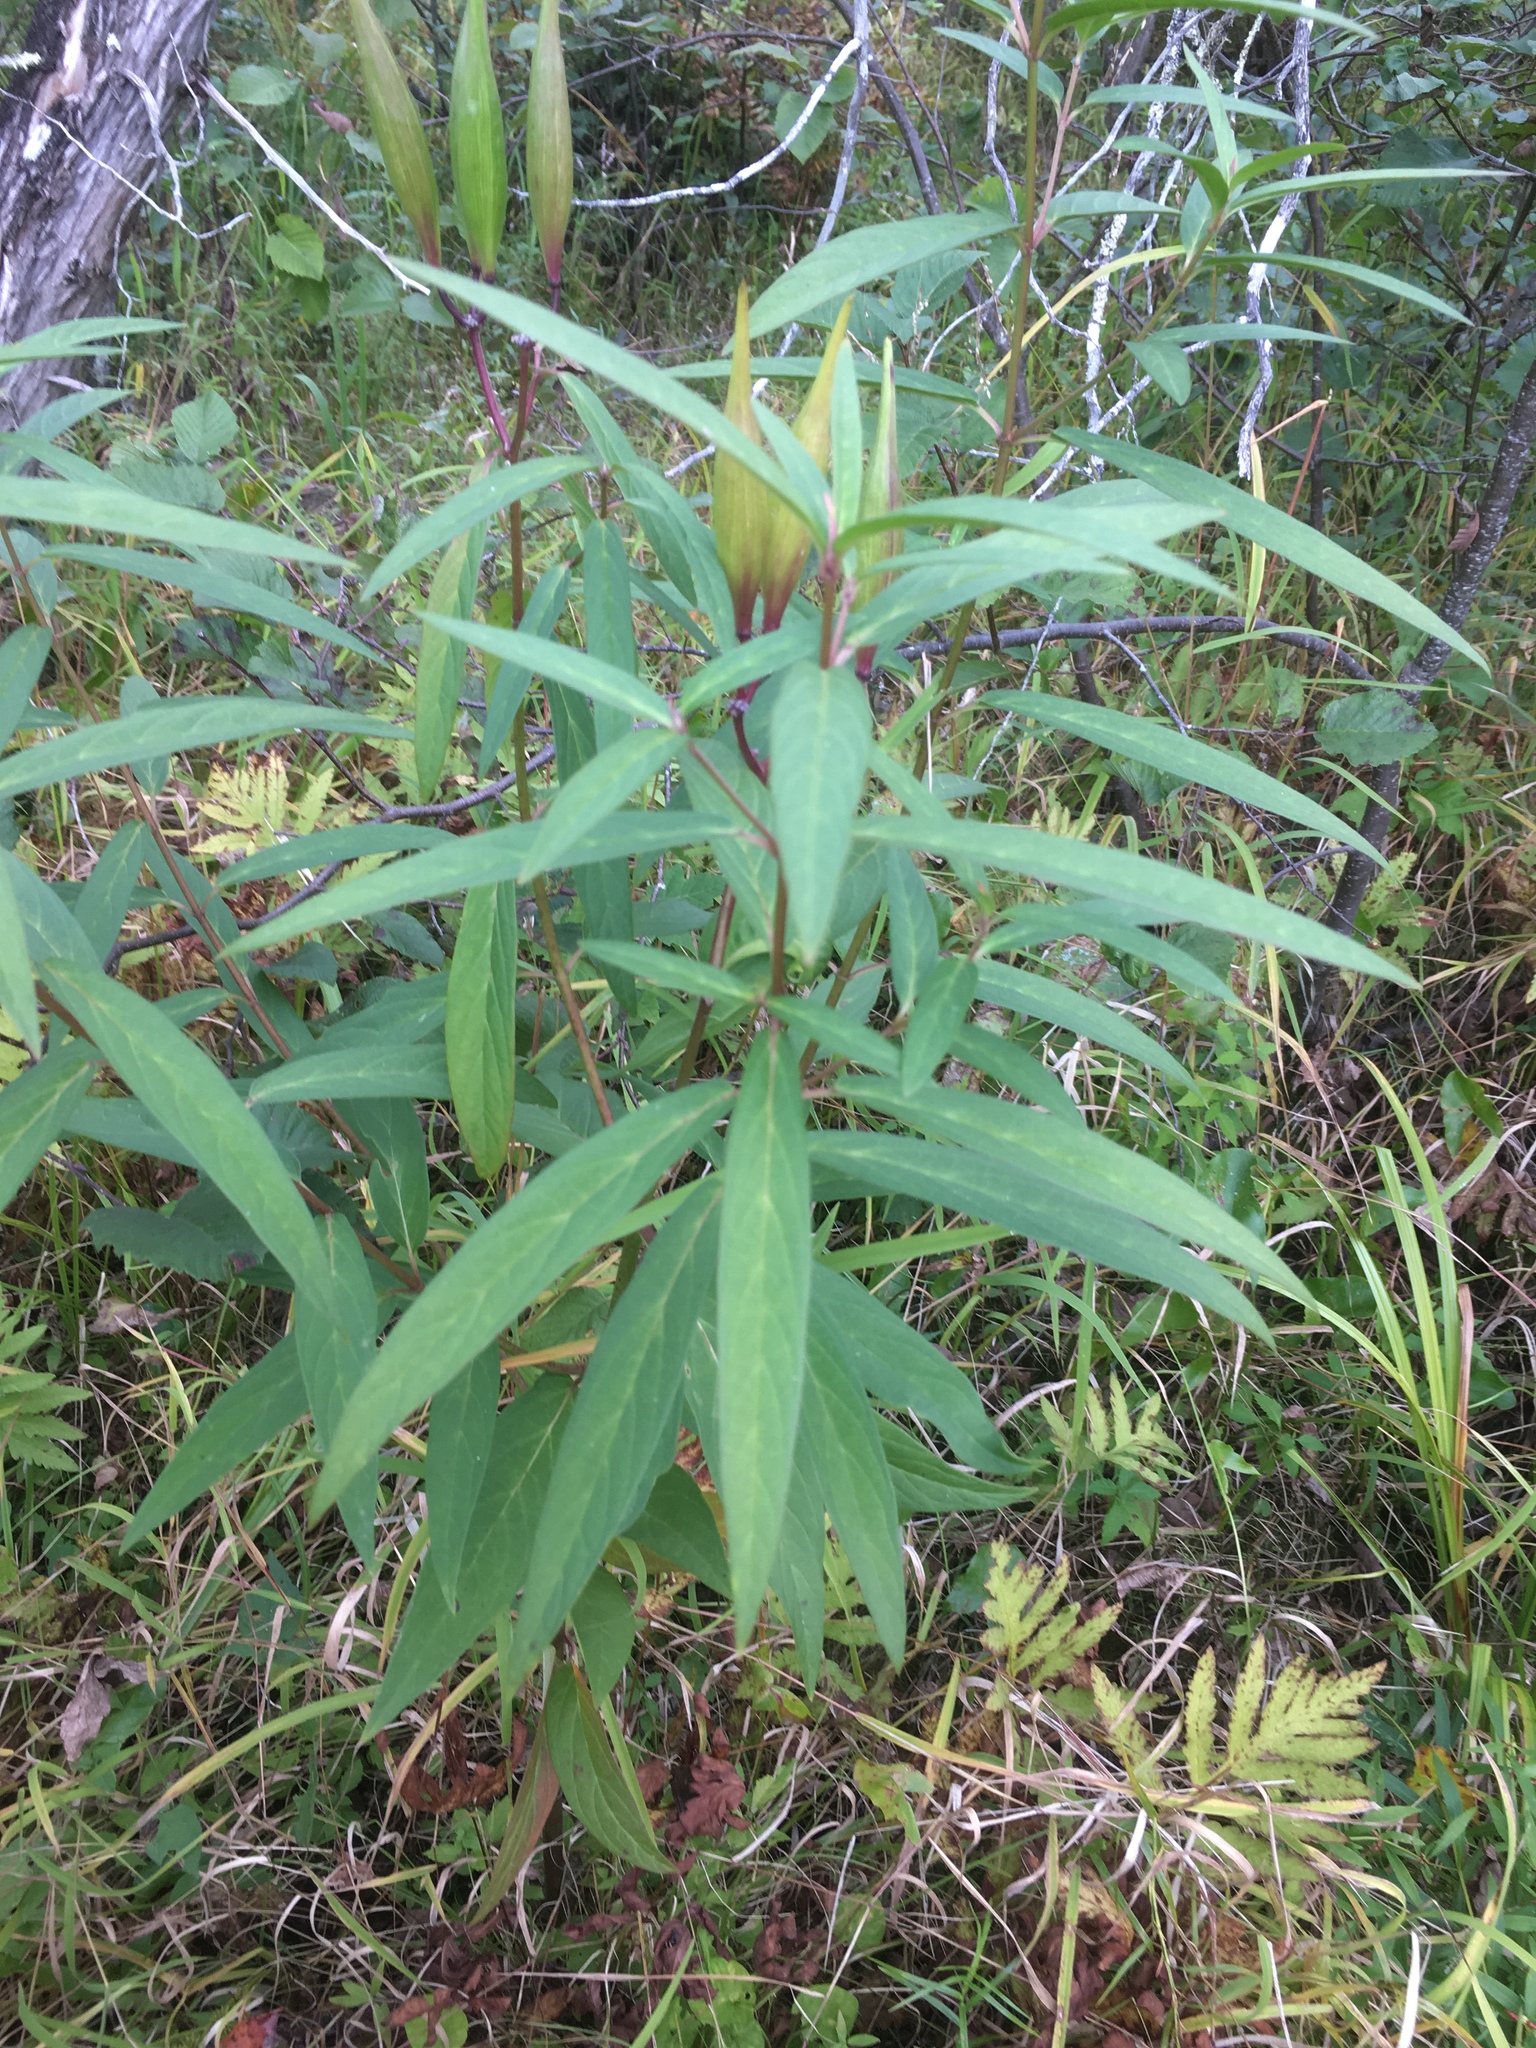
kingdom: Plantae
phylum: Tracheophyta
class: Magnoliopsida
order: Gentianales
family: Apocynaceae
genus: Asclepias
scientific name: Asclepias incarnata
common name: Swamp milkweed
